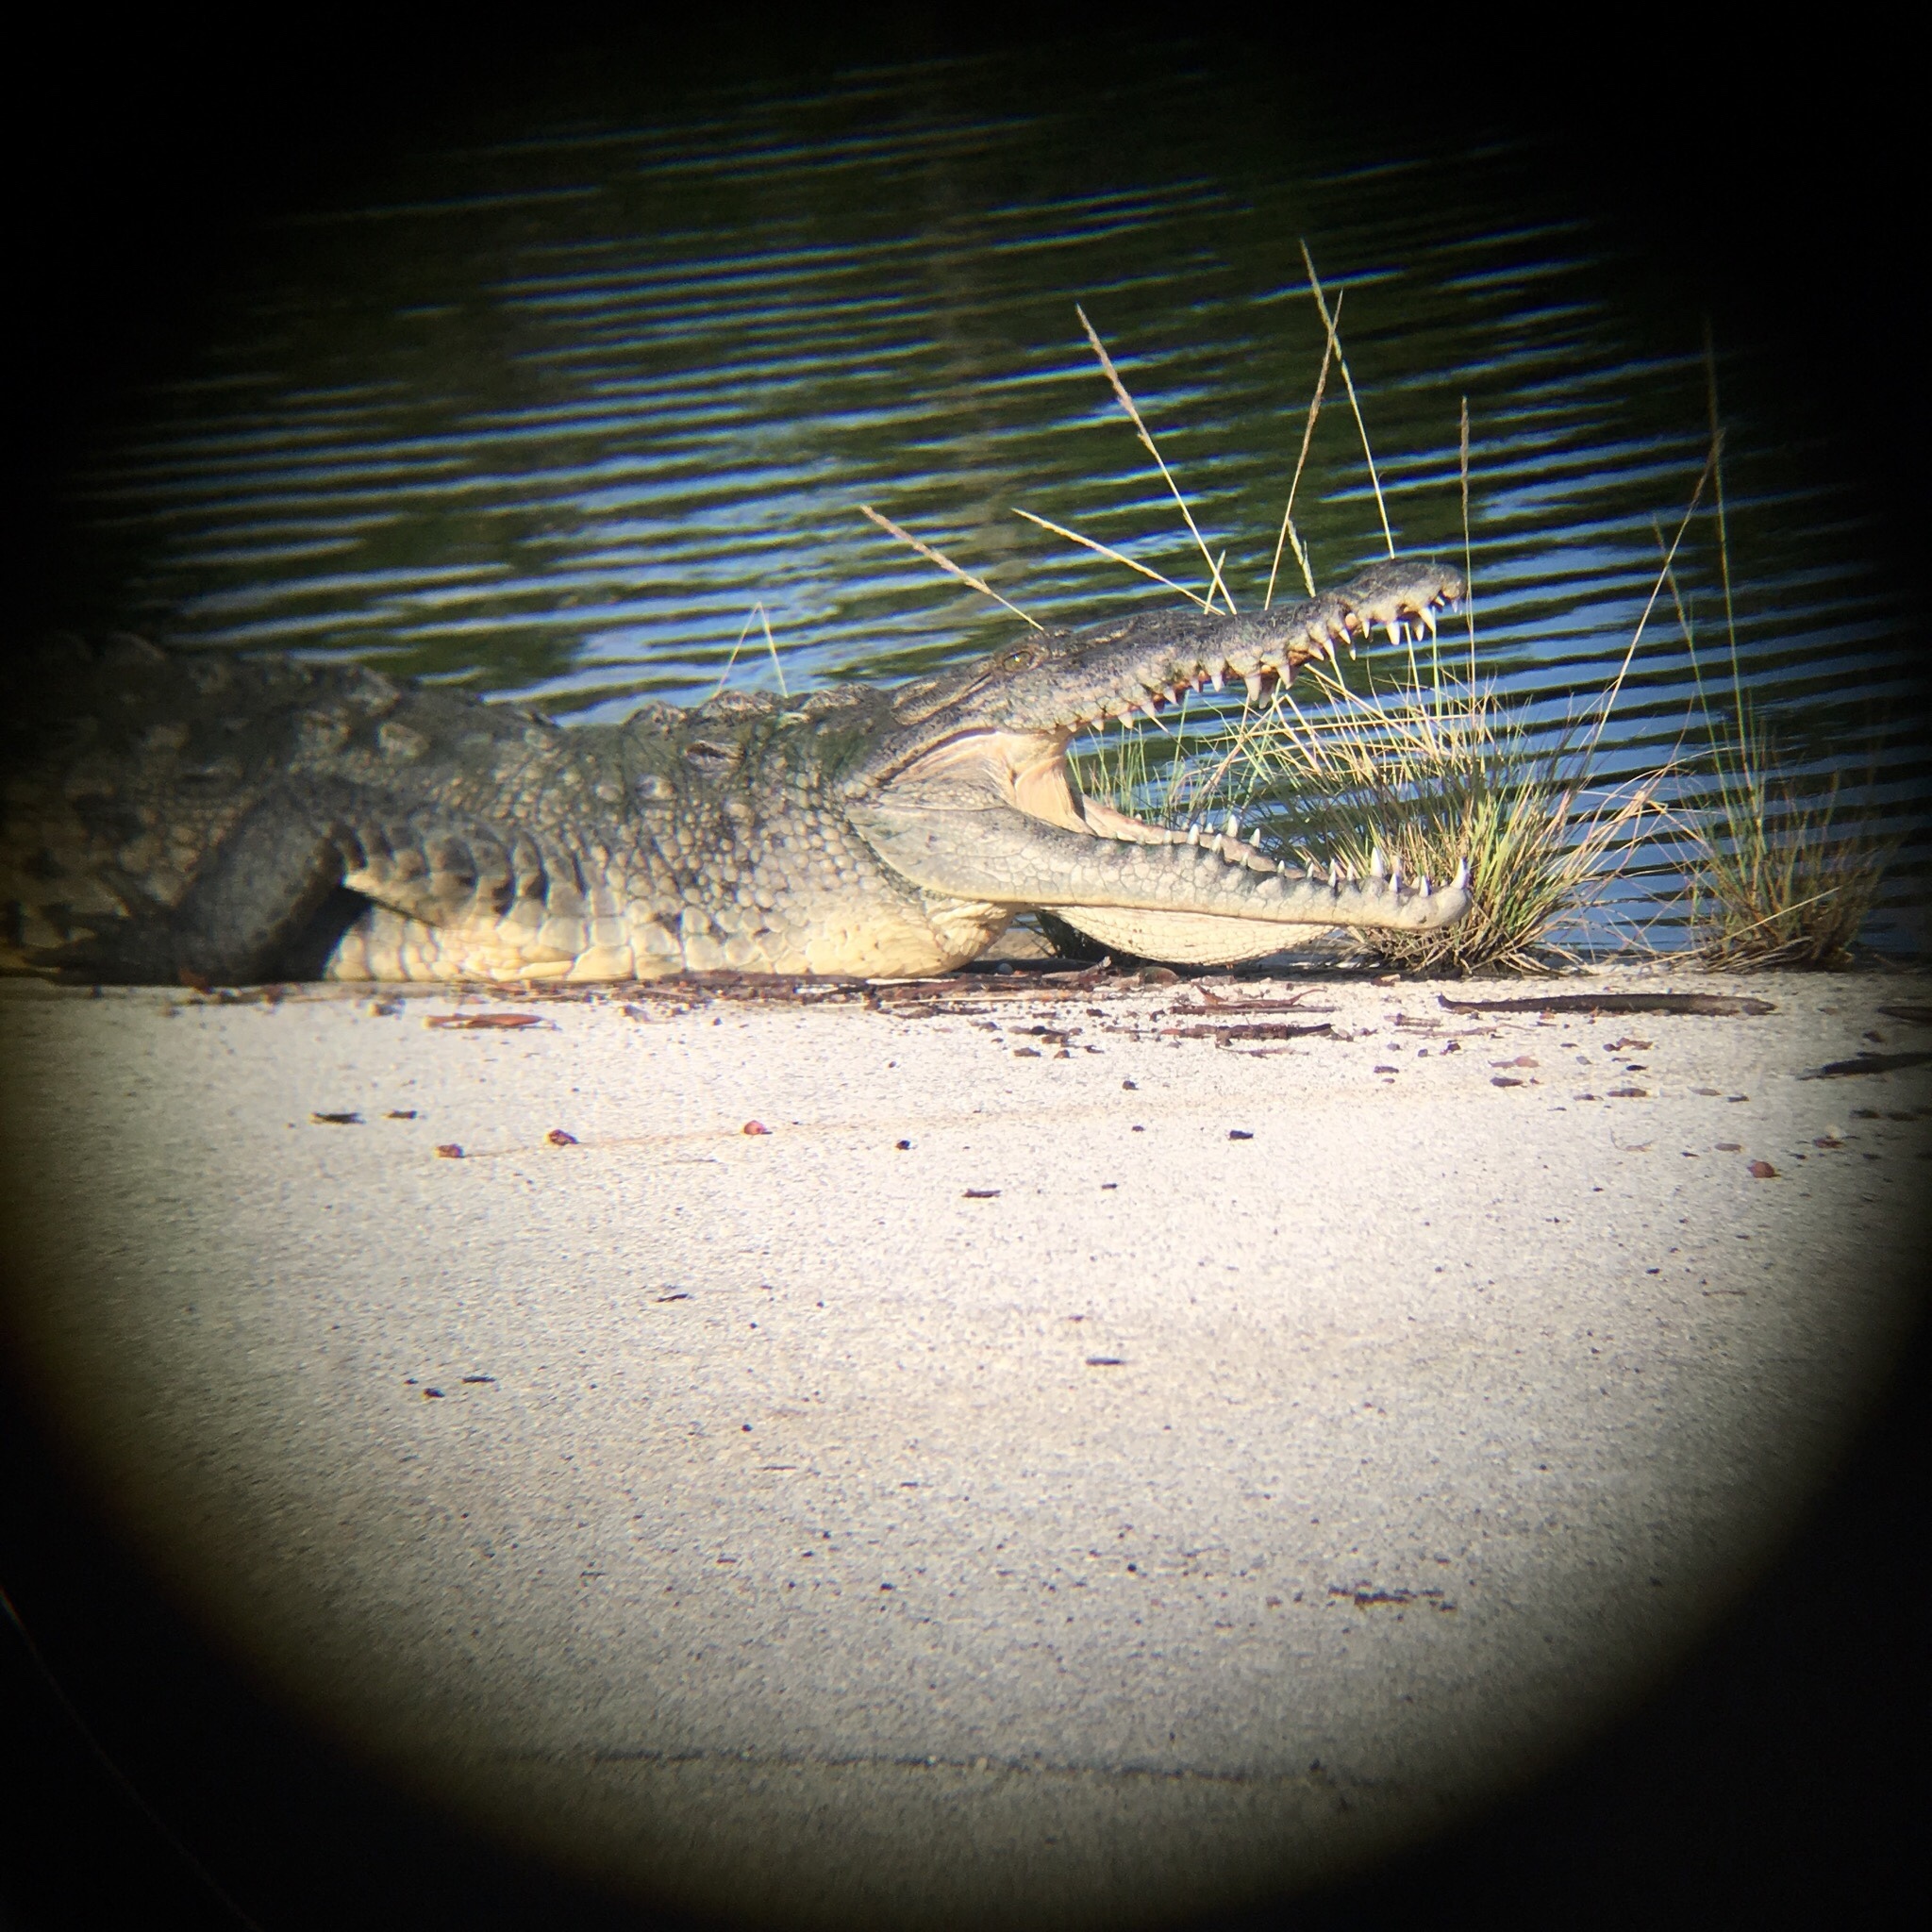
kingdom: Animalia
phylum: Chordata
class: Crocodylia
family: Crocodylidae
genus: Crocodylus
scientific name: Crocodylus acutus
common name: American crocodile
